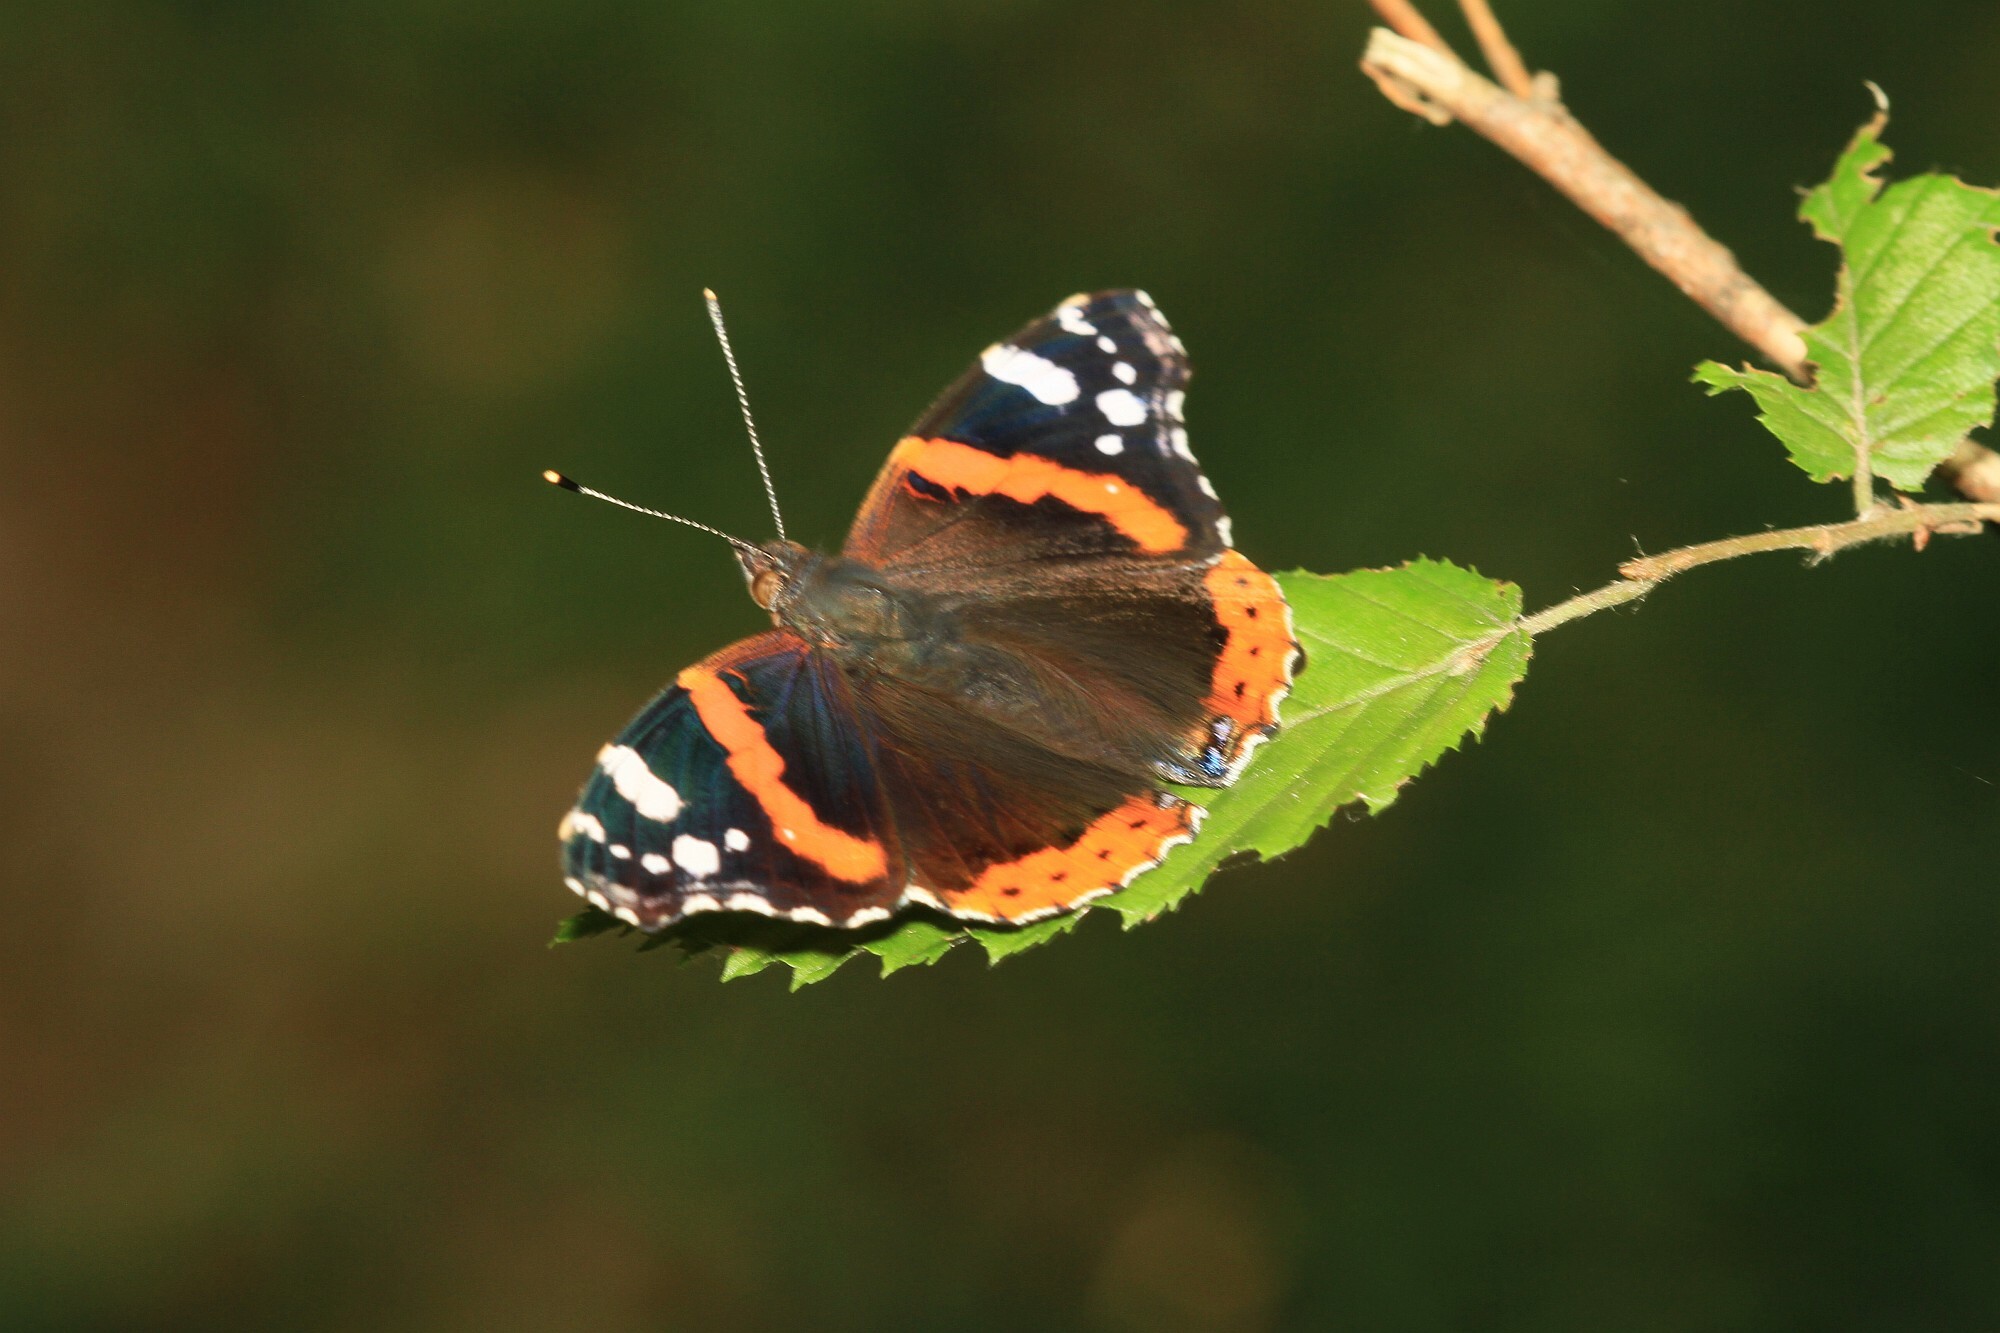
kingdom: Animalia
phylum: Arthropoda
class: Insecta
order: Lepidoptera
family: Nymphalidae
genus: Vanessa
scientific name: Vanessa atalanta
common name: Red admiral
